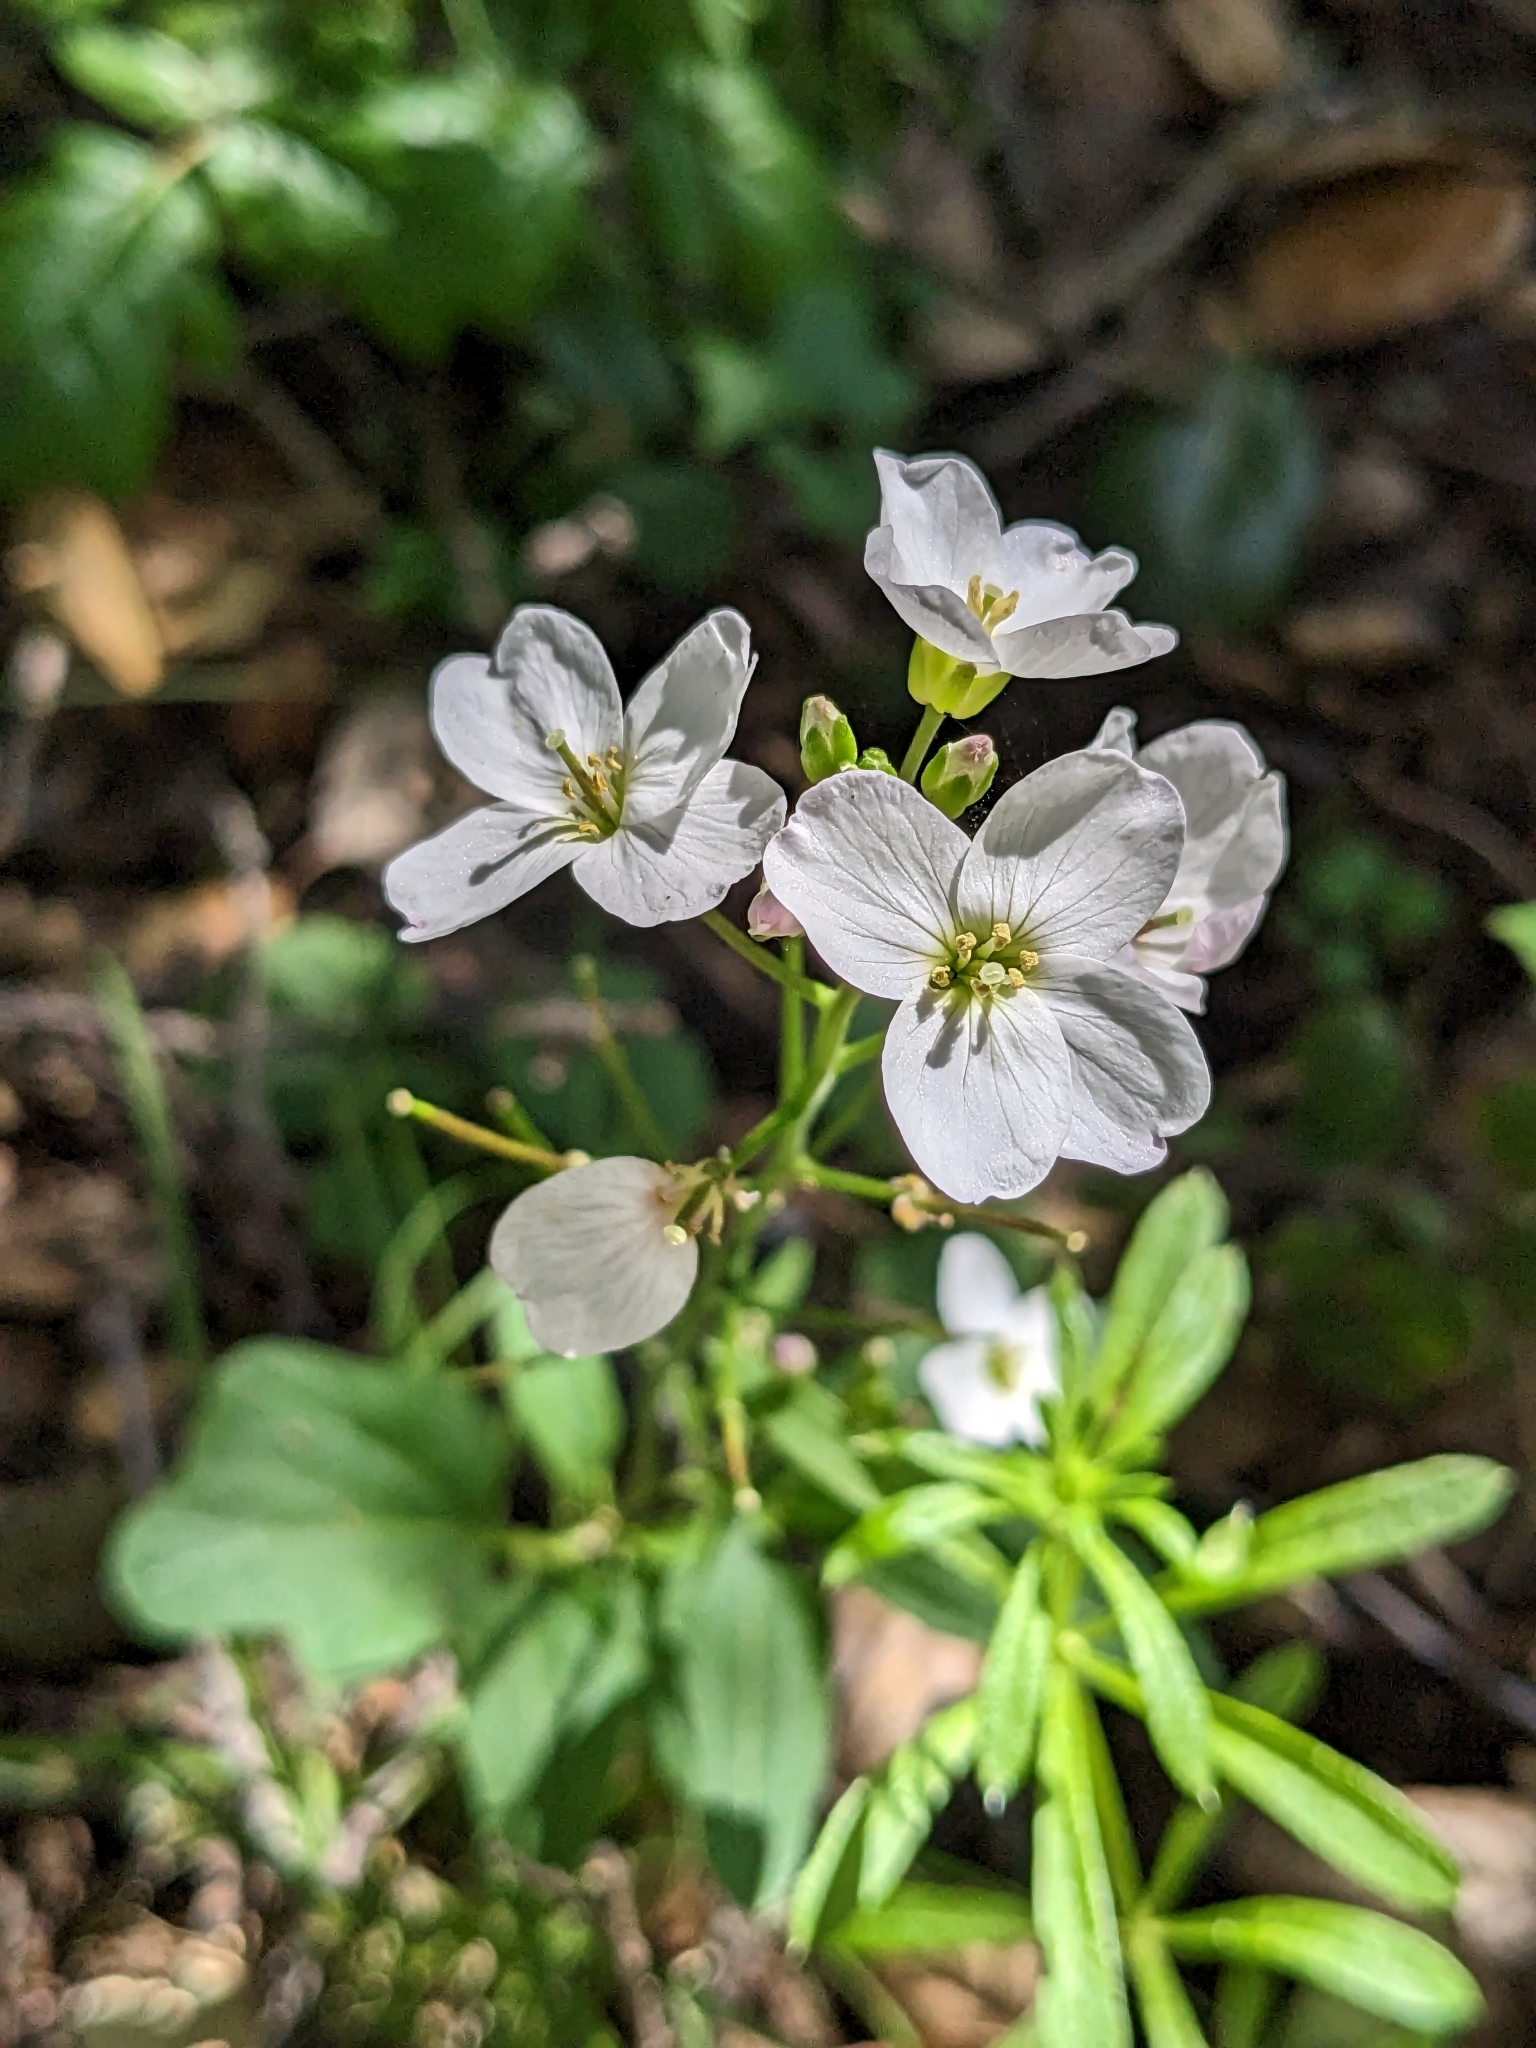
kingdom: Plantae
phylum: Tracheophyta
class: Magnoliopsida
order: Brassicales
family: Brassicaceae
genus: Cardamine
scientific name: Cardamine californica
